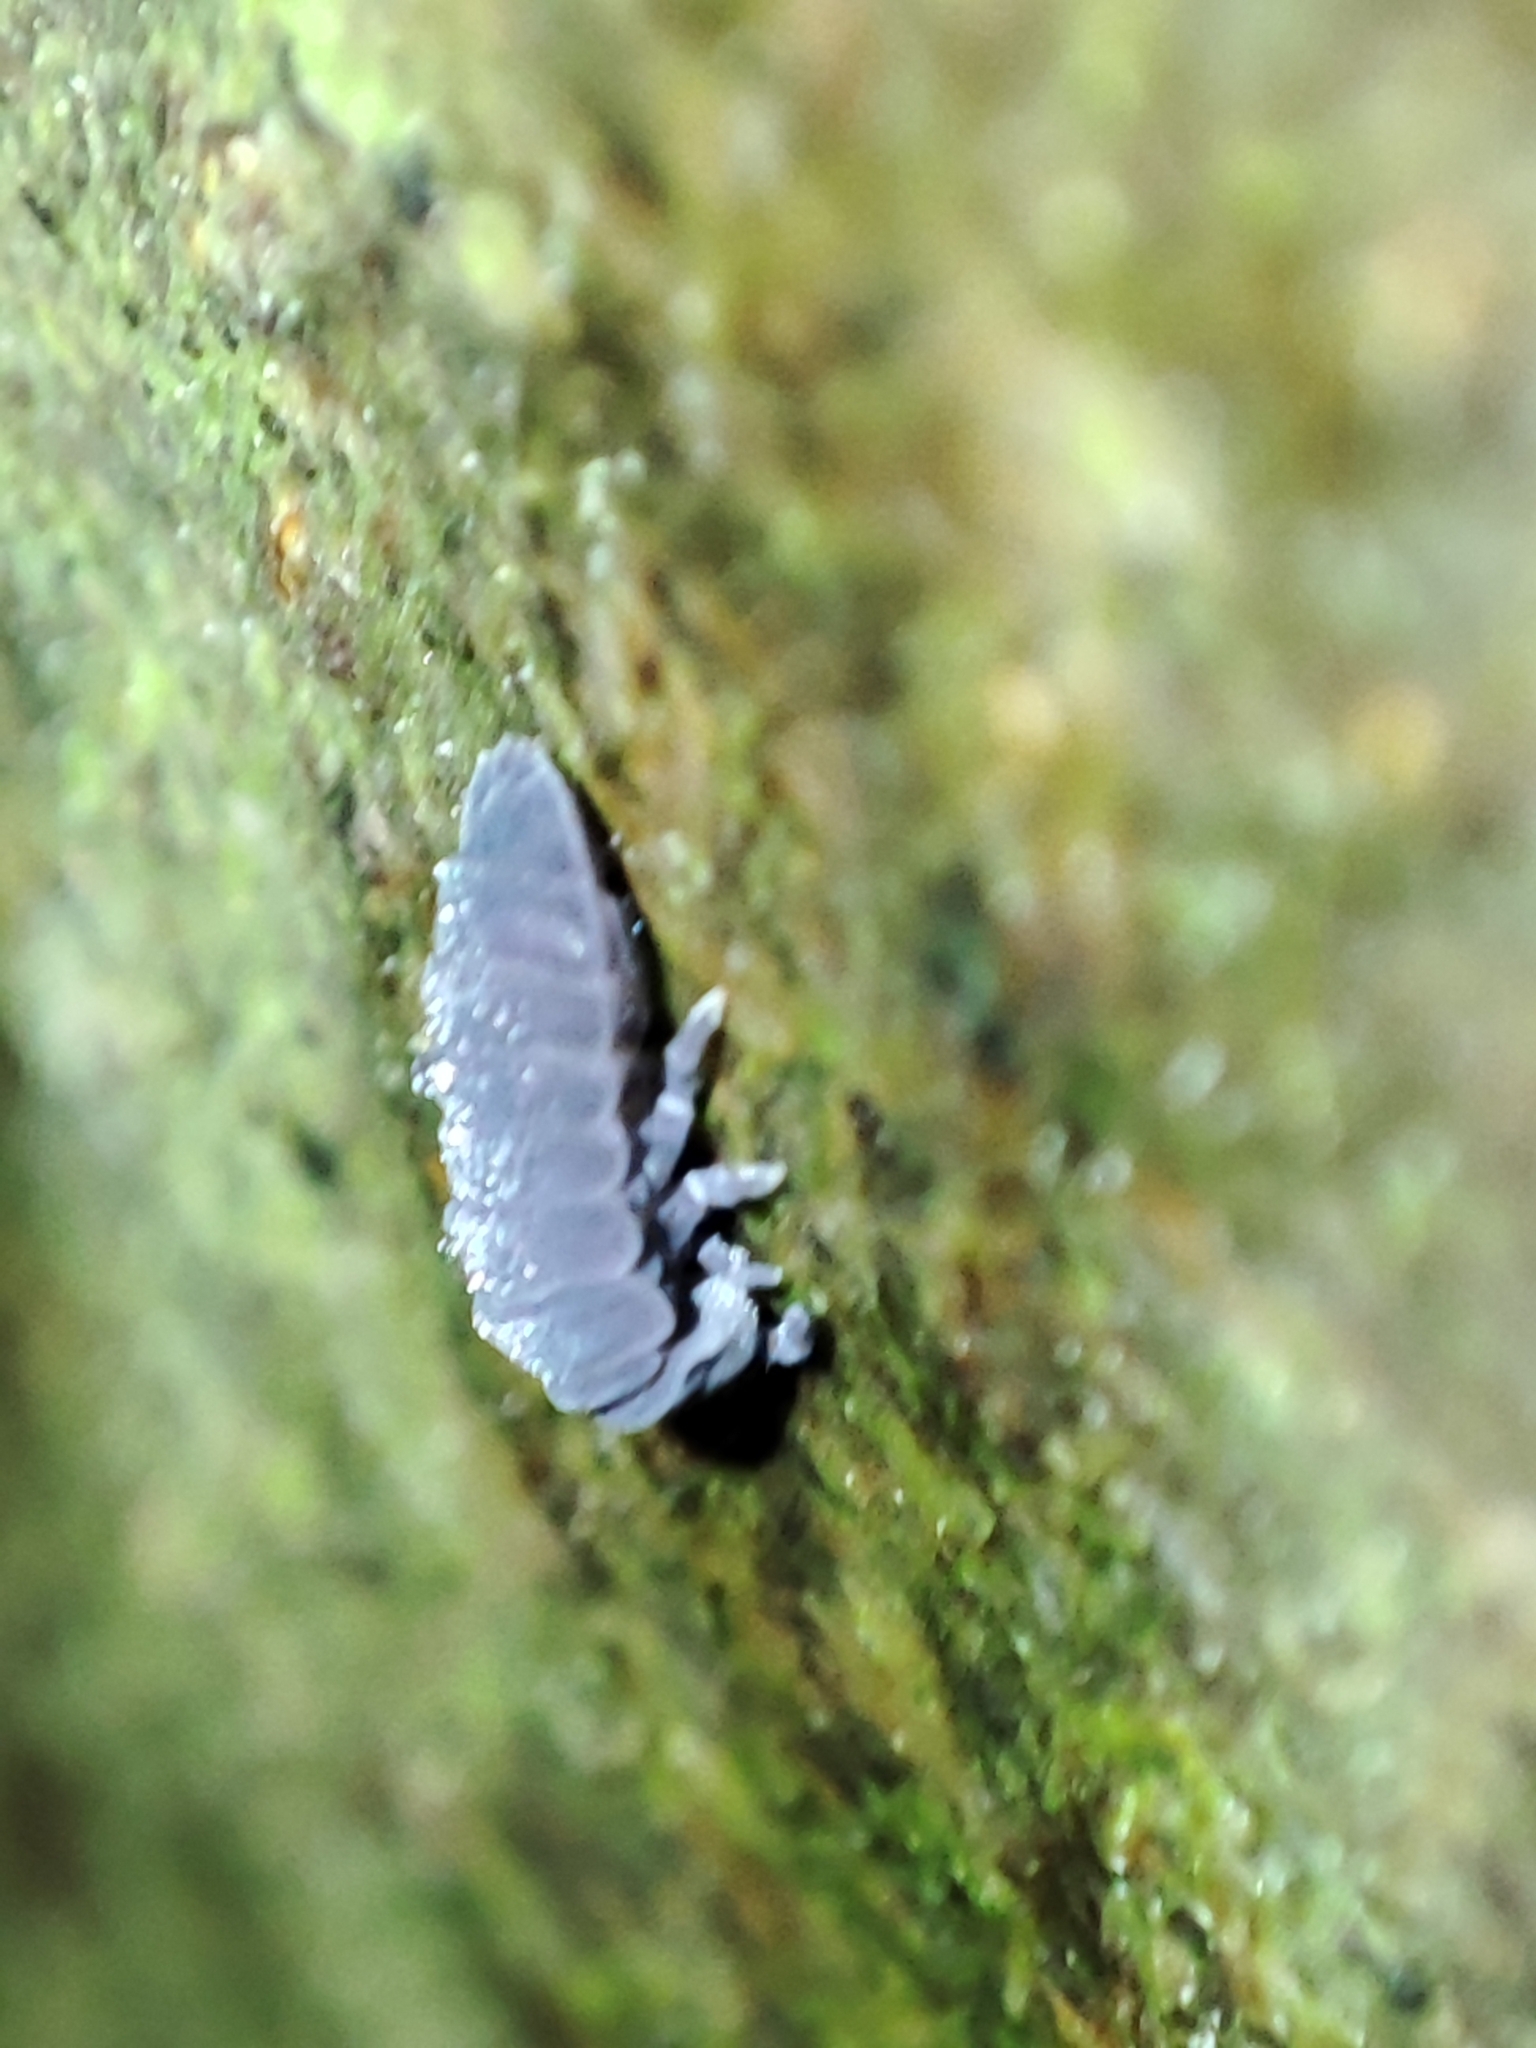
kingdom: Animalia
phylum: Arthropoda
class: Collembola
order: Poduromorpha
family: Onychiuridae
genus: Tetrodontophora
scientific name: Tetrodontophora bielanensis
